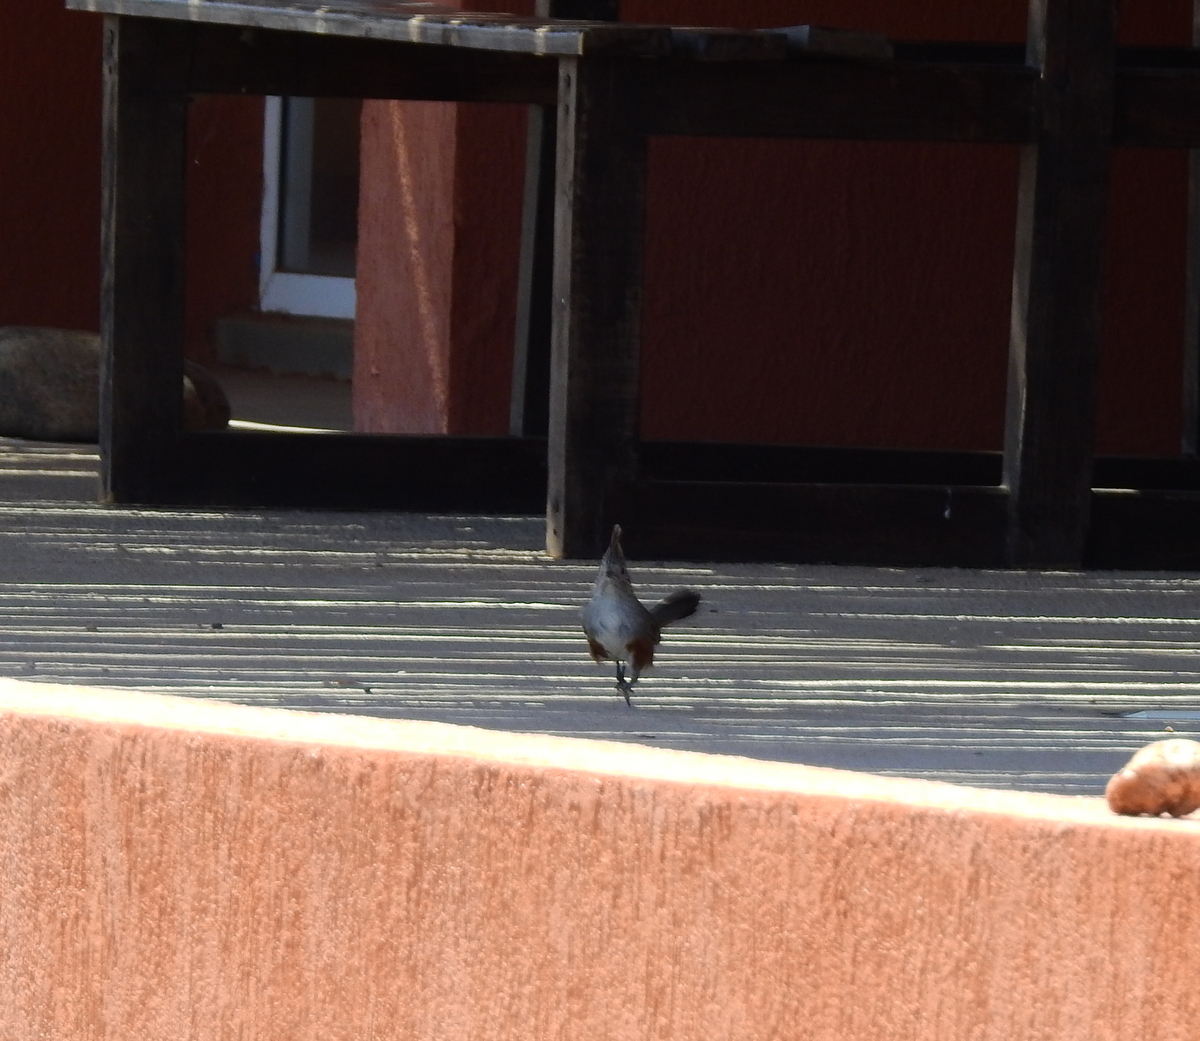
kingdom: Animalia
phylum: Chordata
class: Aves
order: Passeriformes
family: Rhinocryptidae
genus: Rhinocrypta
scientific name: Rhinocrypta lanceolata
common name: Crested gallito
